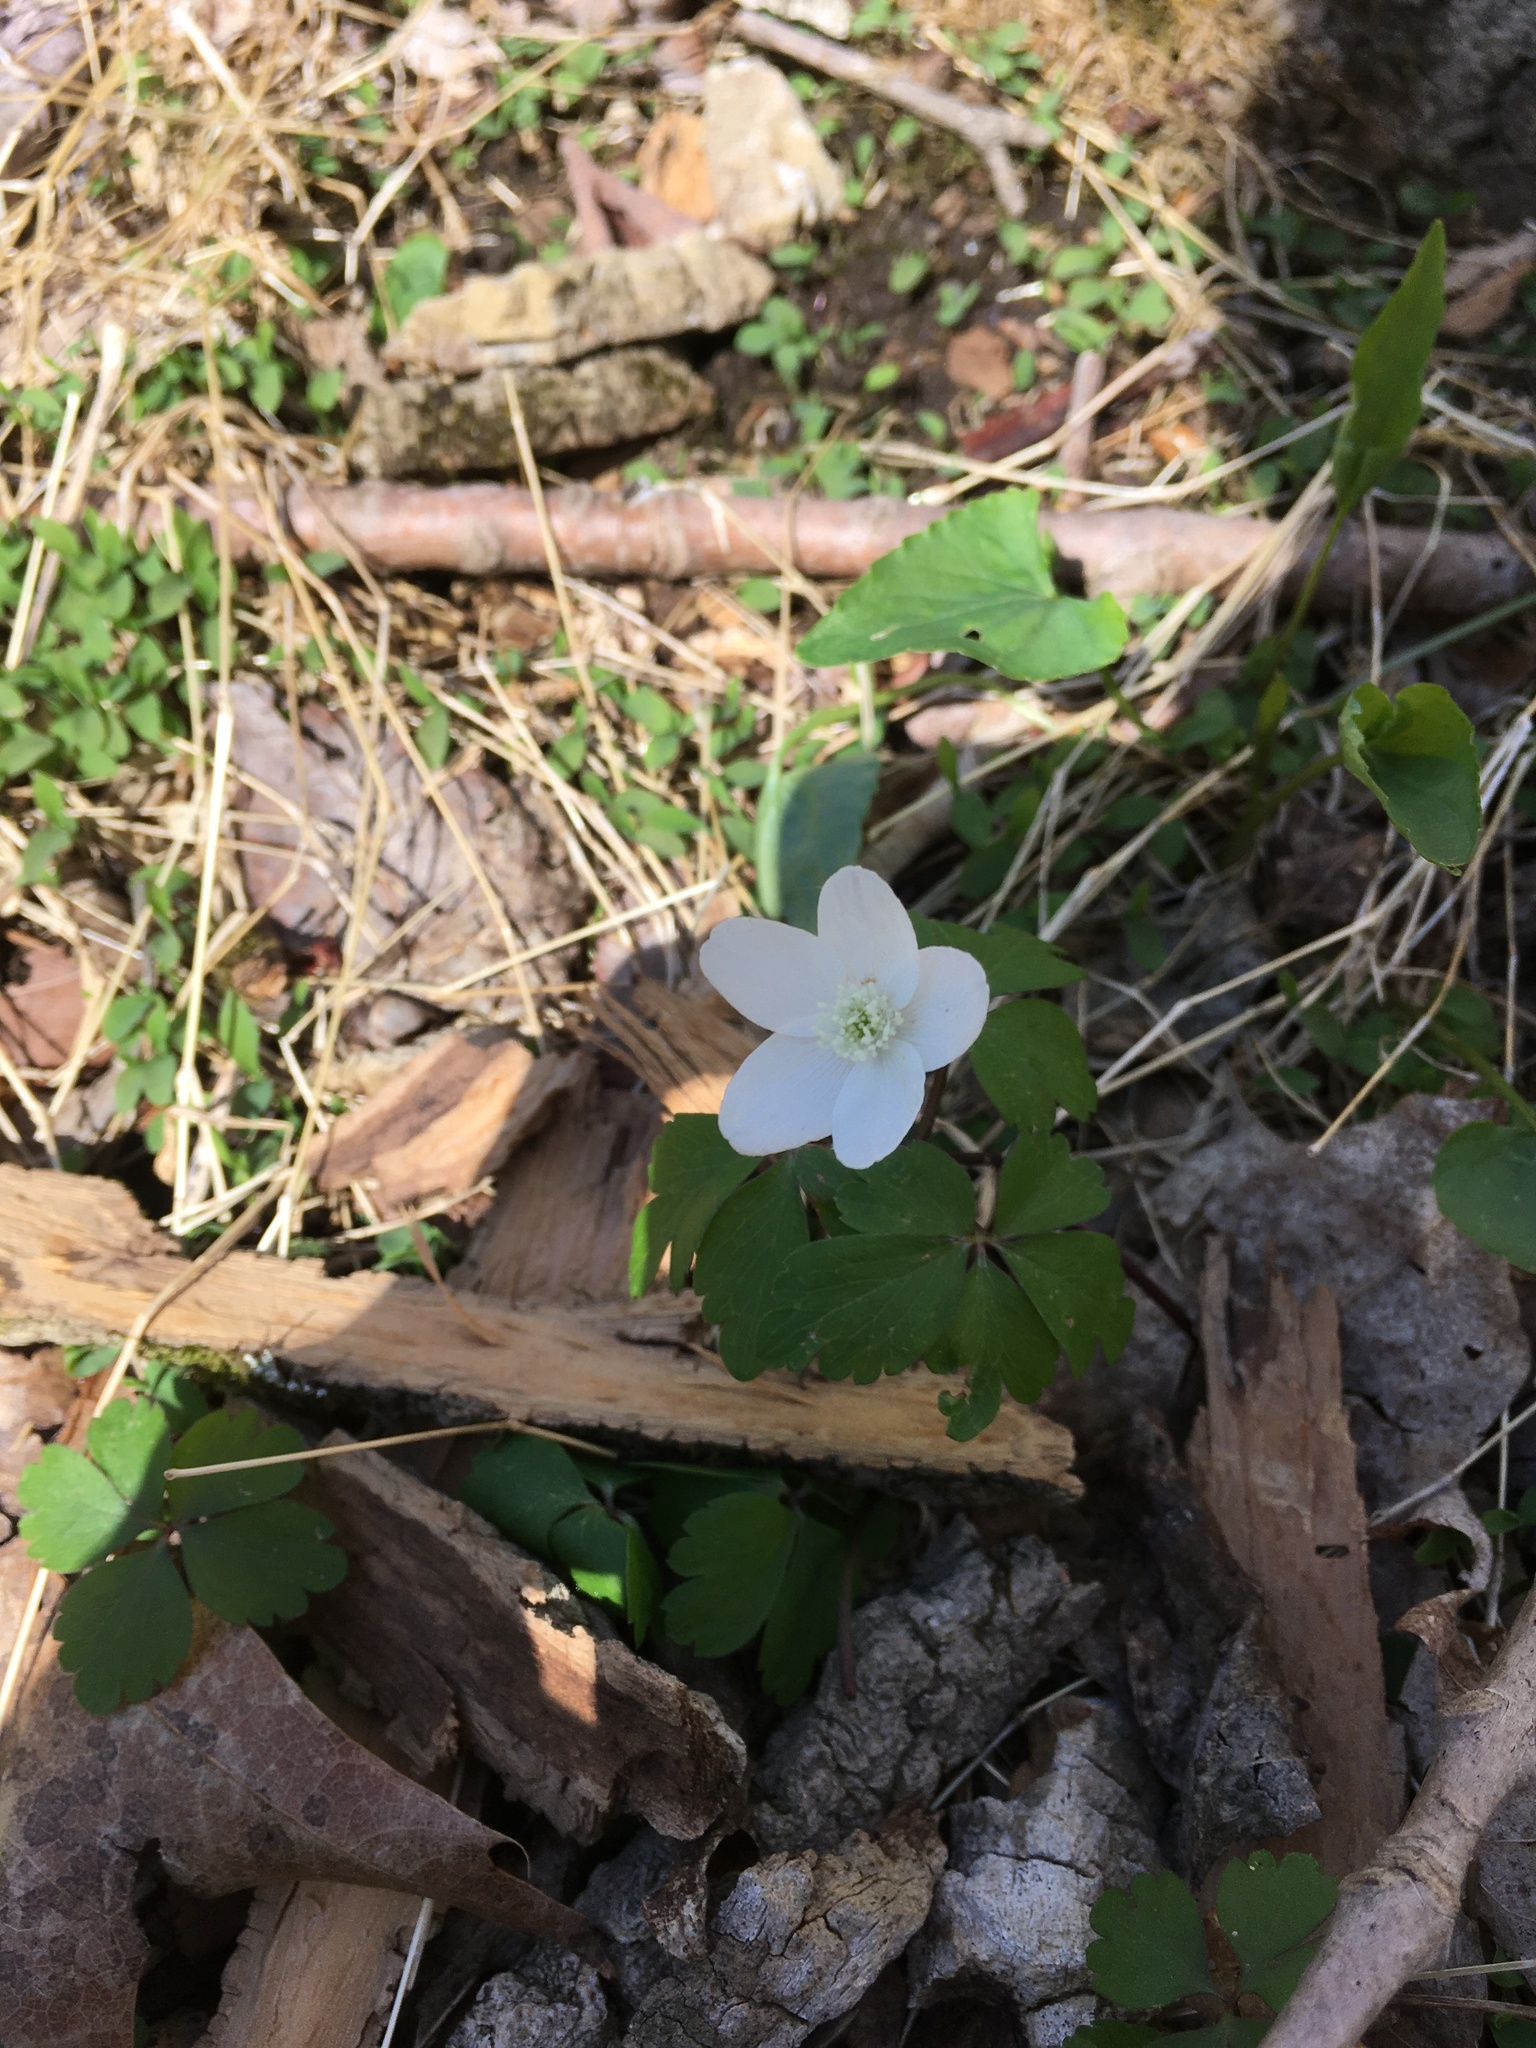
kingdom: Plantae
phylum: Tracheophyta
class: Magnoliopsida
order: Ranunculales
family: Ranunculaceae
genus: Anemone
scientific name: Anemone quinquefolia
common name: Wood anemone
